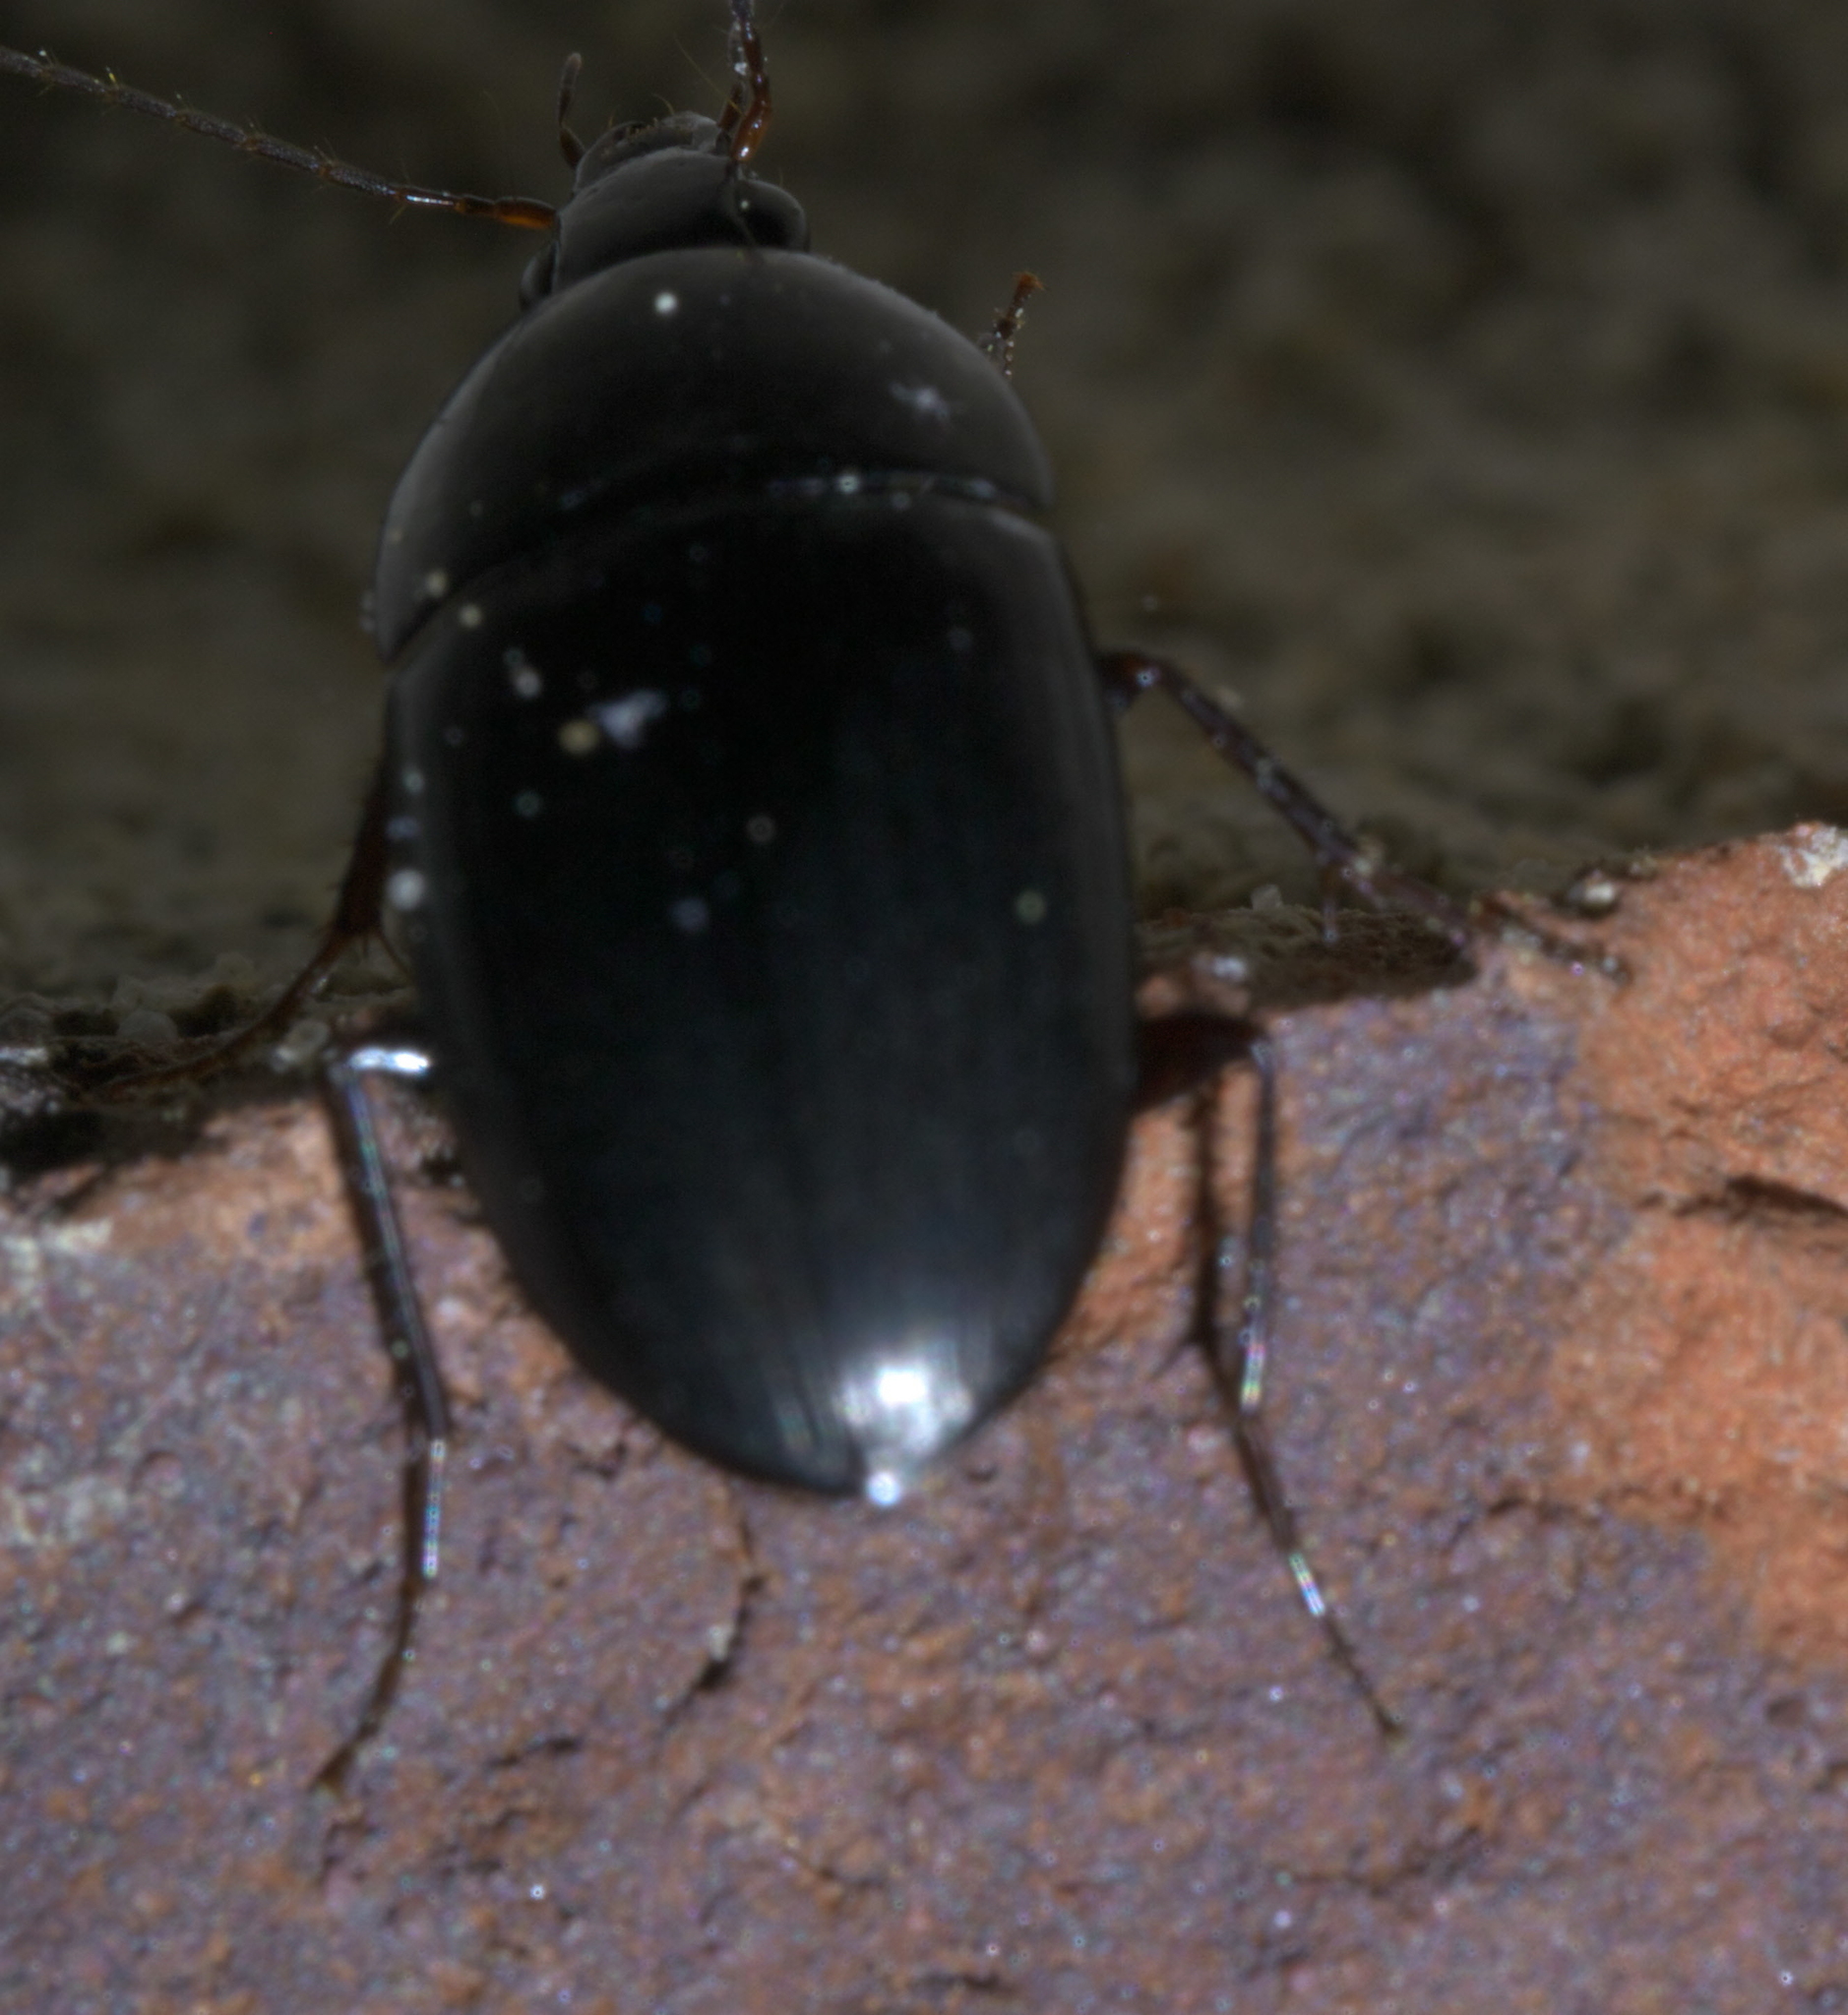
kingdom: Animalia
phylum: Arthropoda
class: Insecta
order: Coleoptera
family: Carabidae
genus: Oodes
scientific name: Oodes amaroides
